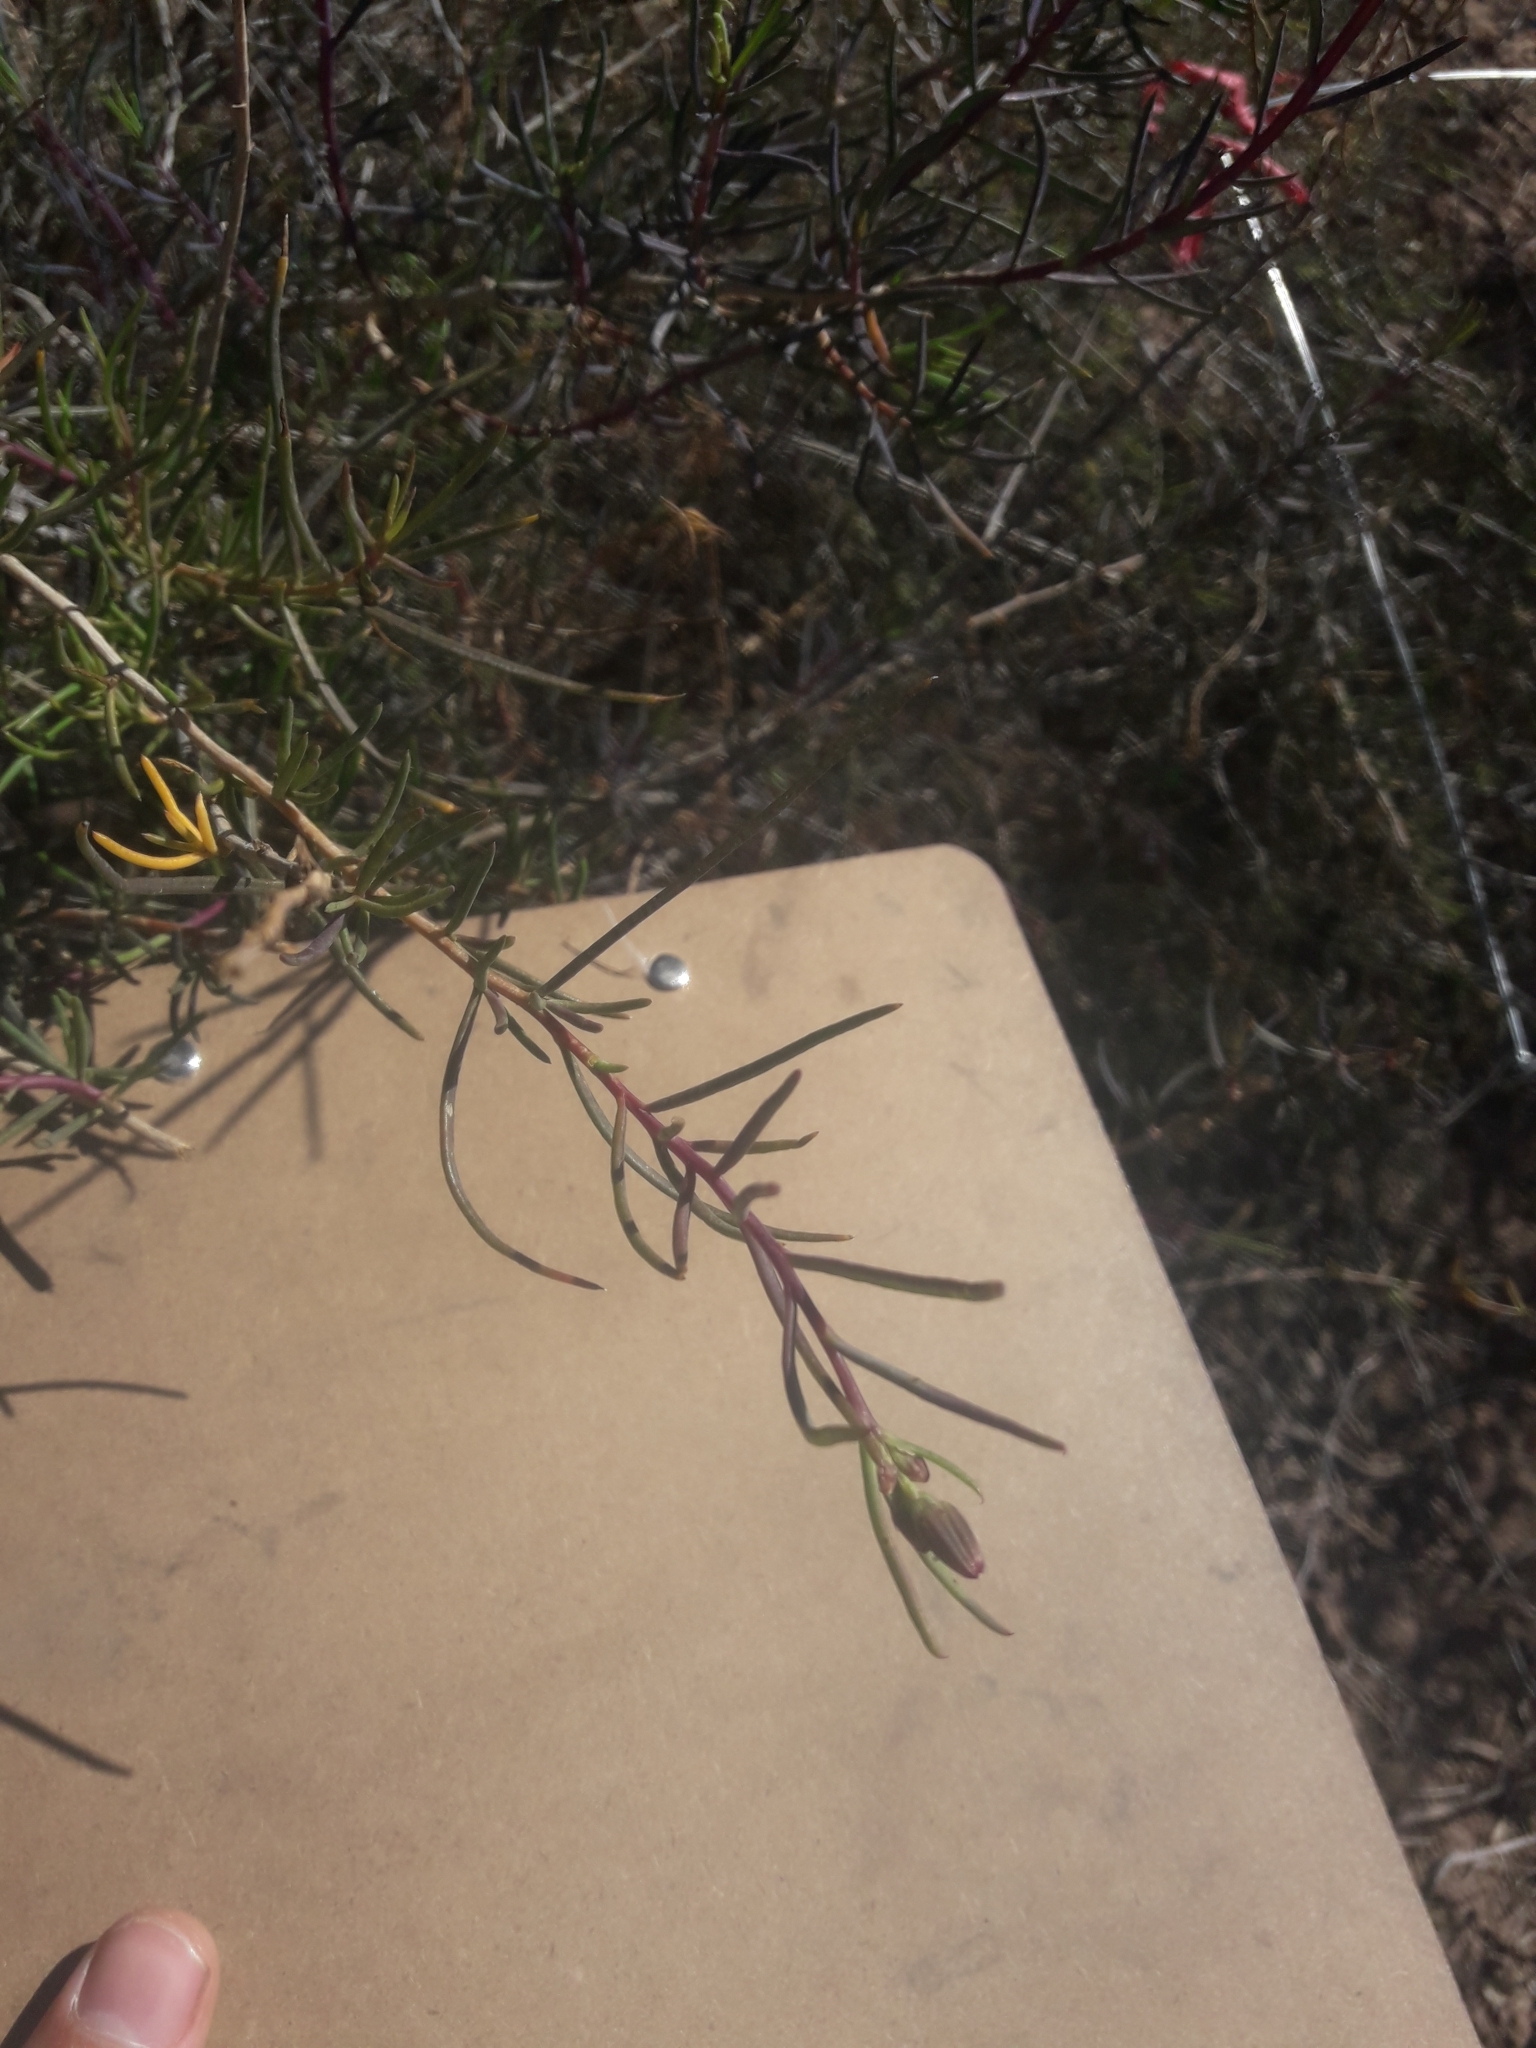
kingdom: Plantae
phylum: Tracheophyta
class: Magnoliopsida
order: Asterales
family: Asteraceae
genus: Senecio
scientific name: Senecio subulatus
